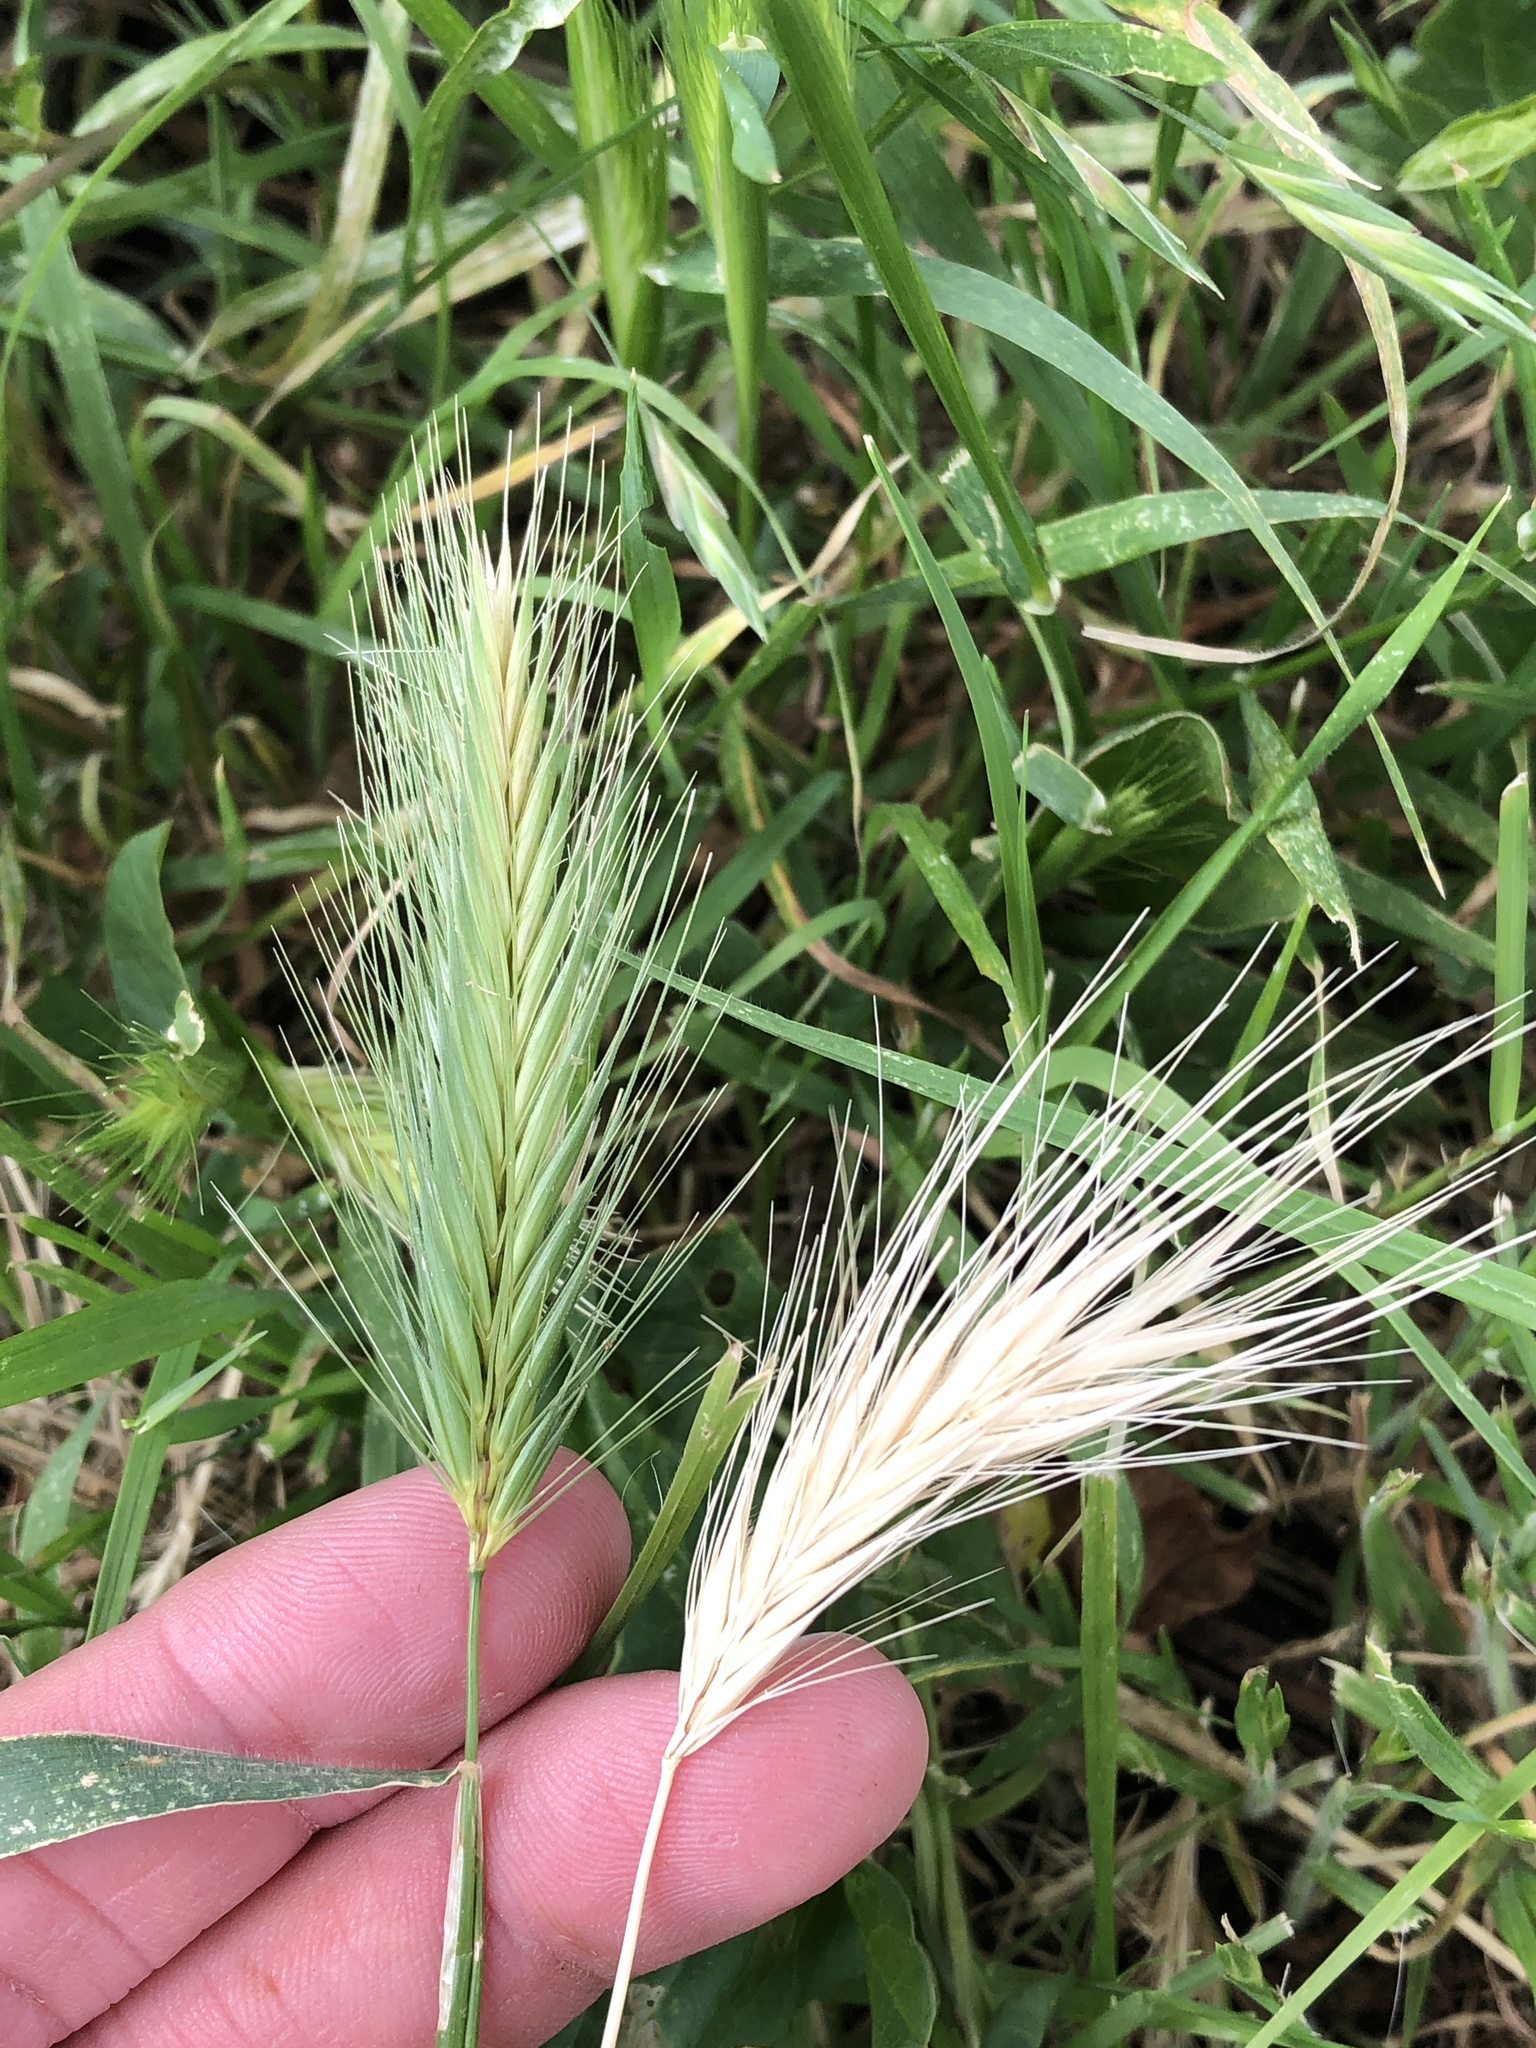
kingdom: Plantae
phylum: Tracheophyta
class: Liliopsida
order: Poales
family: Poaceae
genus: Hordeum
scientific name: Hordeum murinum
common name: Wall barley
